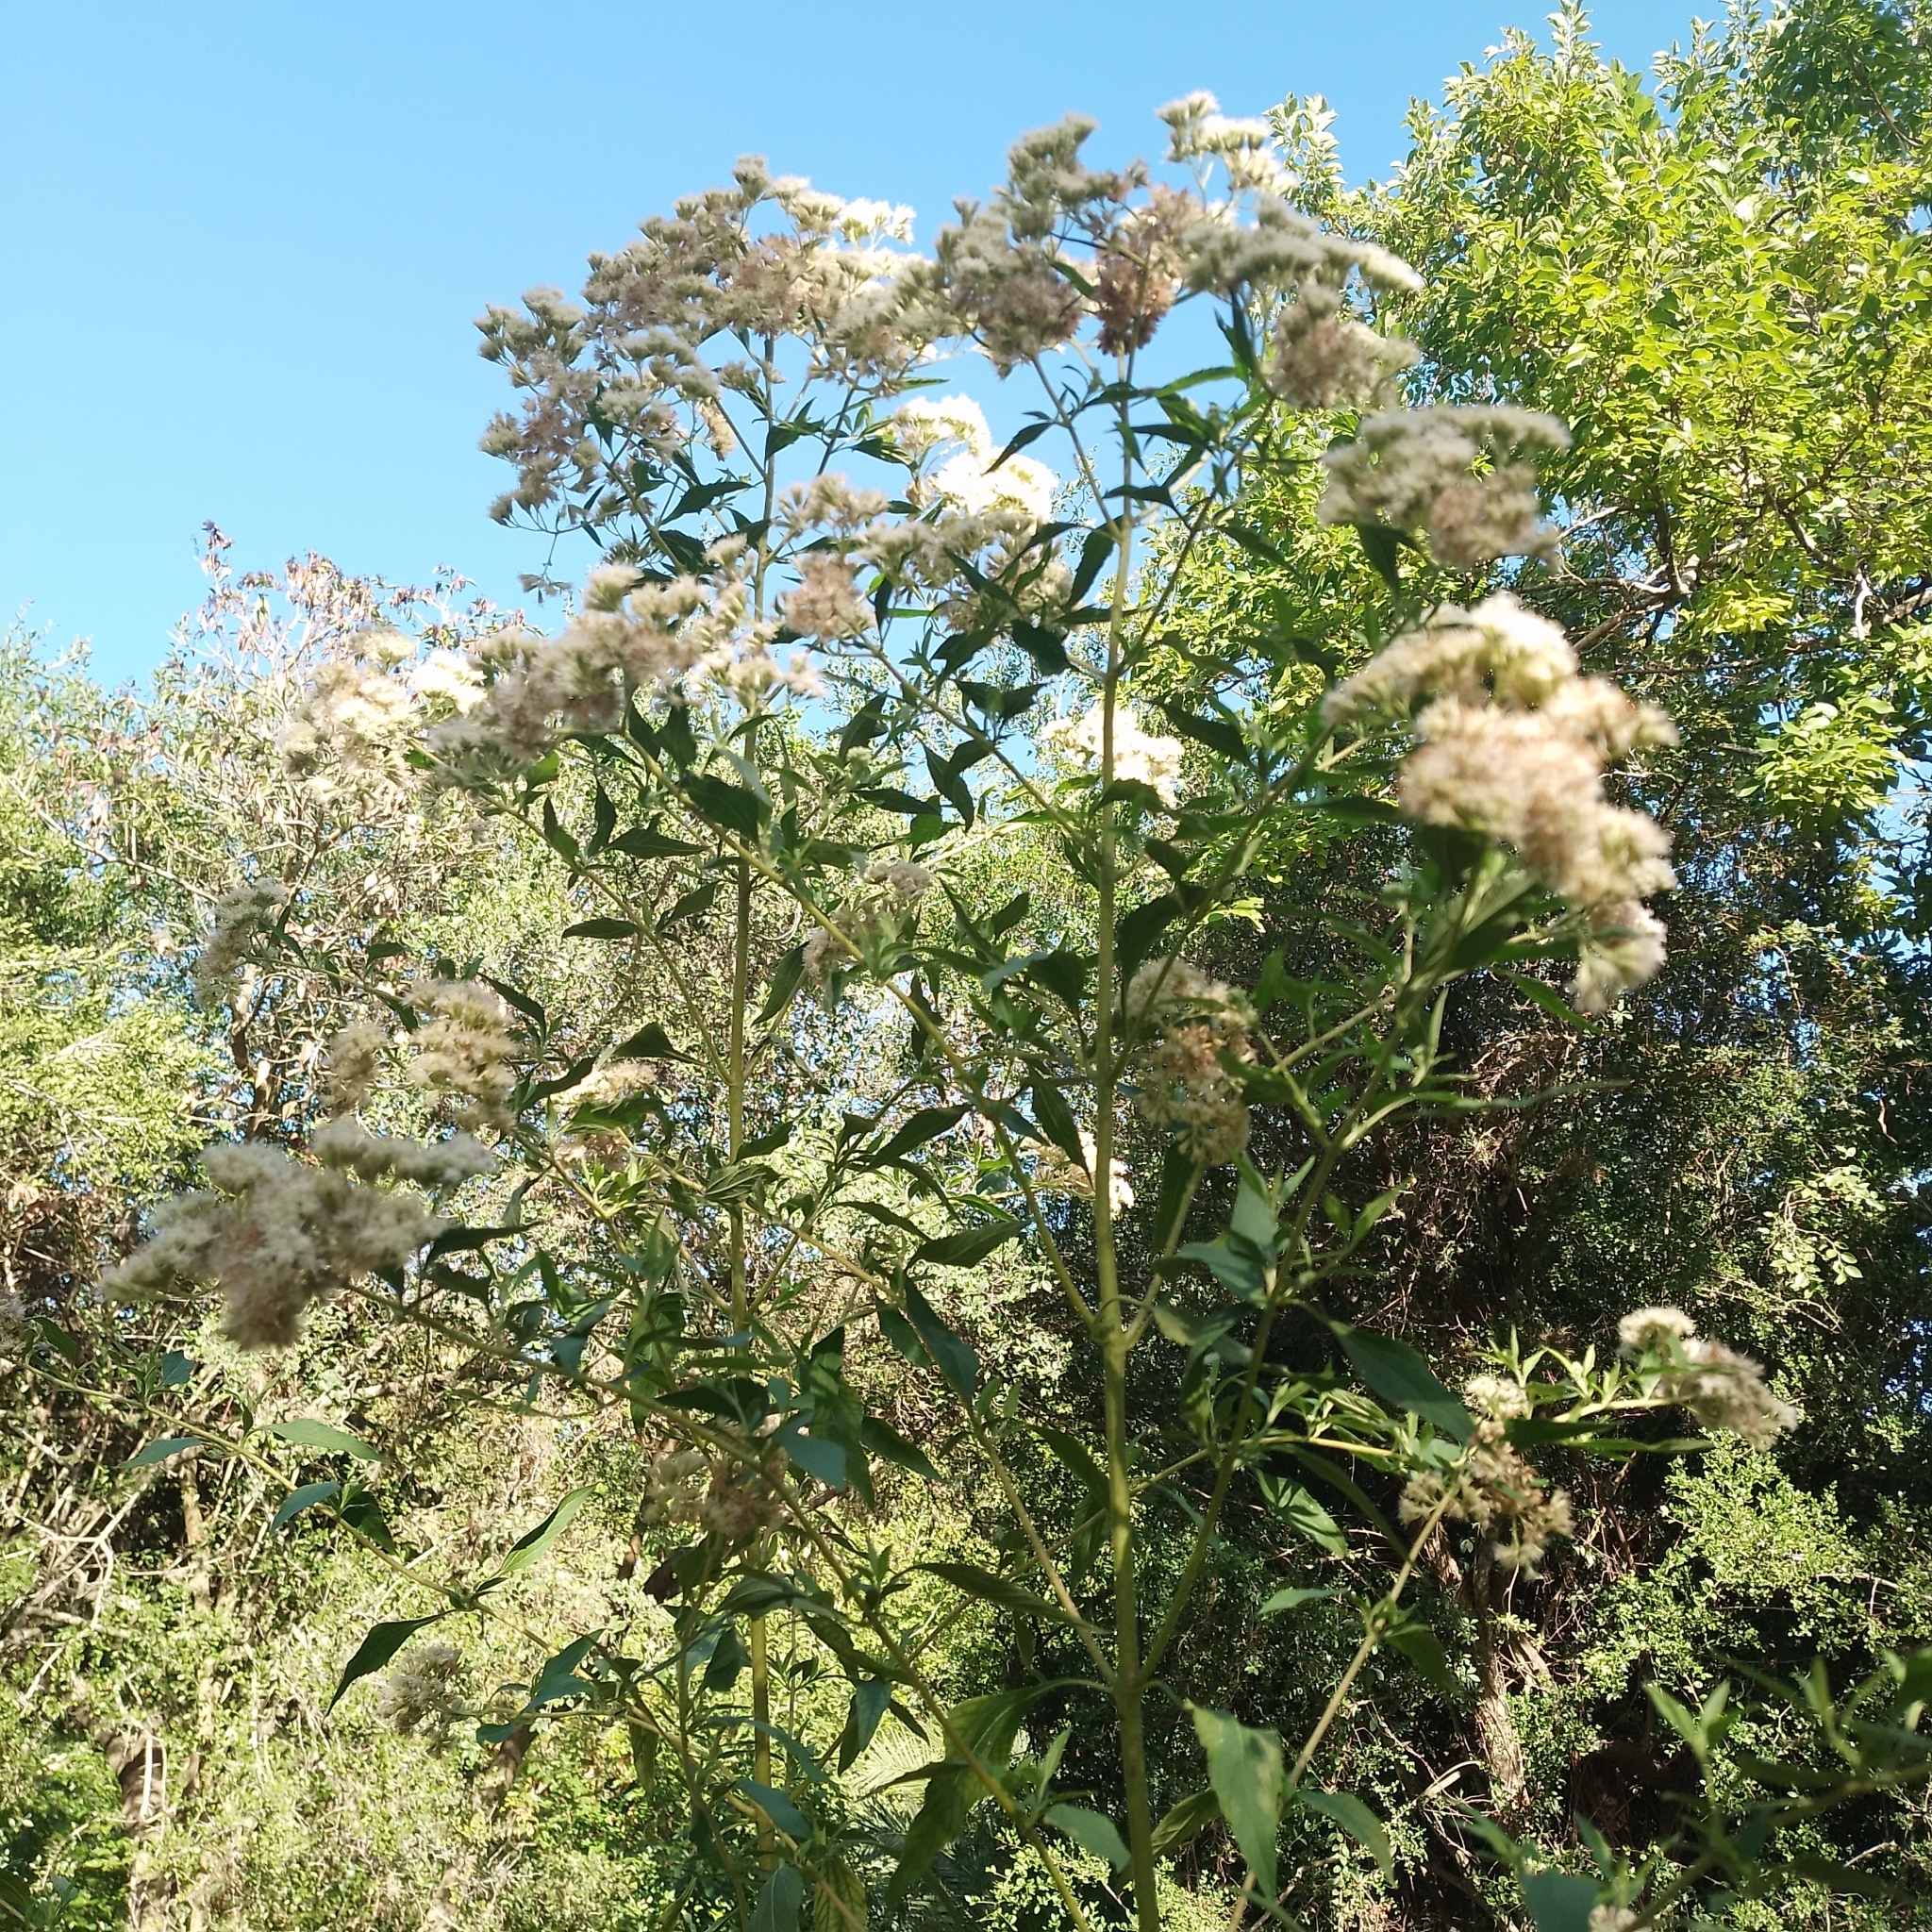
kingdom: Plantae
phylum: Tracheophyta
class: Magnoliopsida
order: Asterales
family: Asteraceae
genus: Austroeupatorium
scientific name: Austroeupatorium inulifolium
